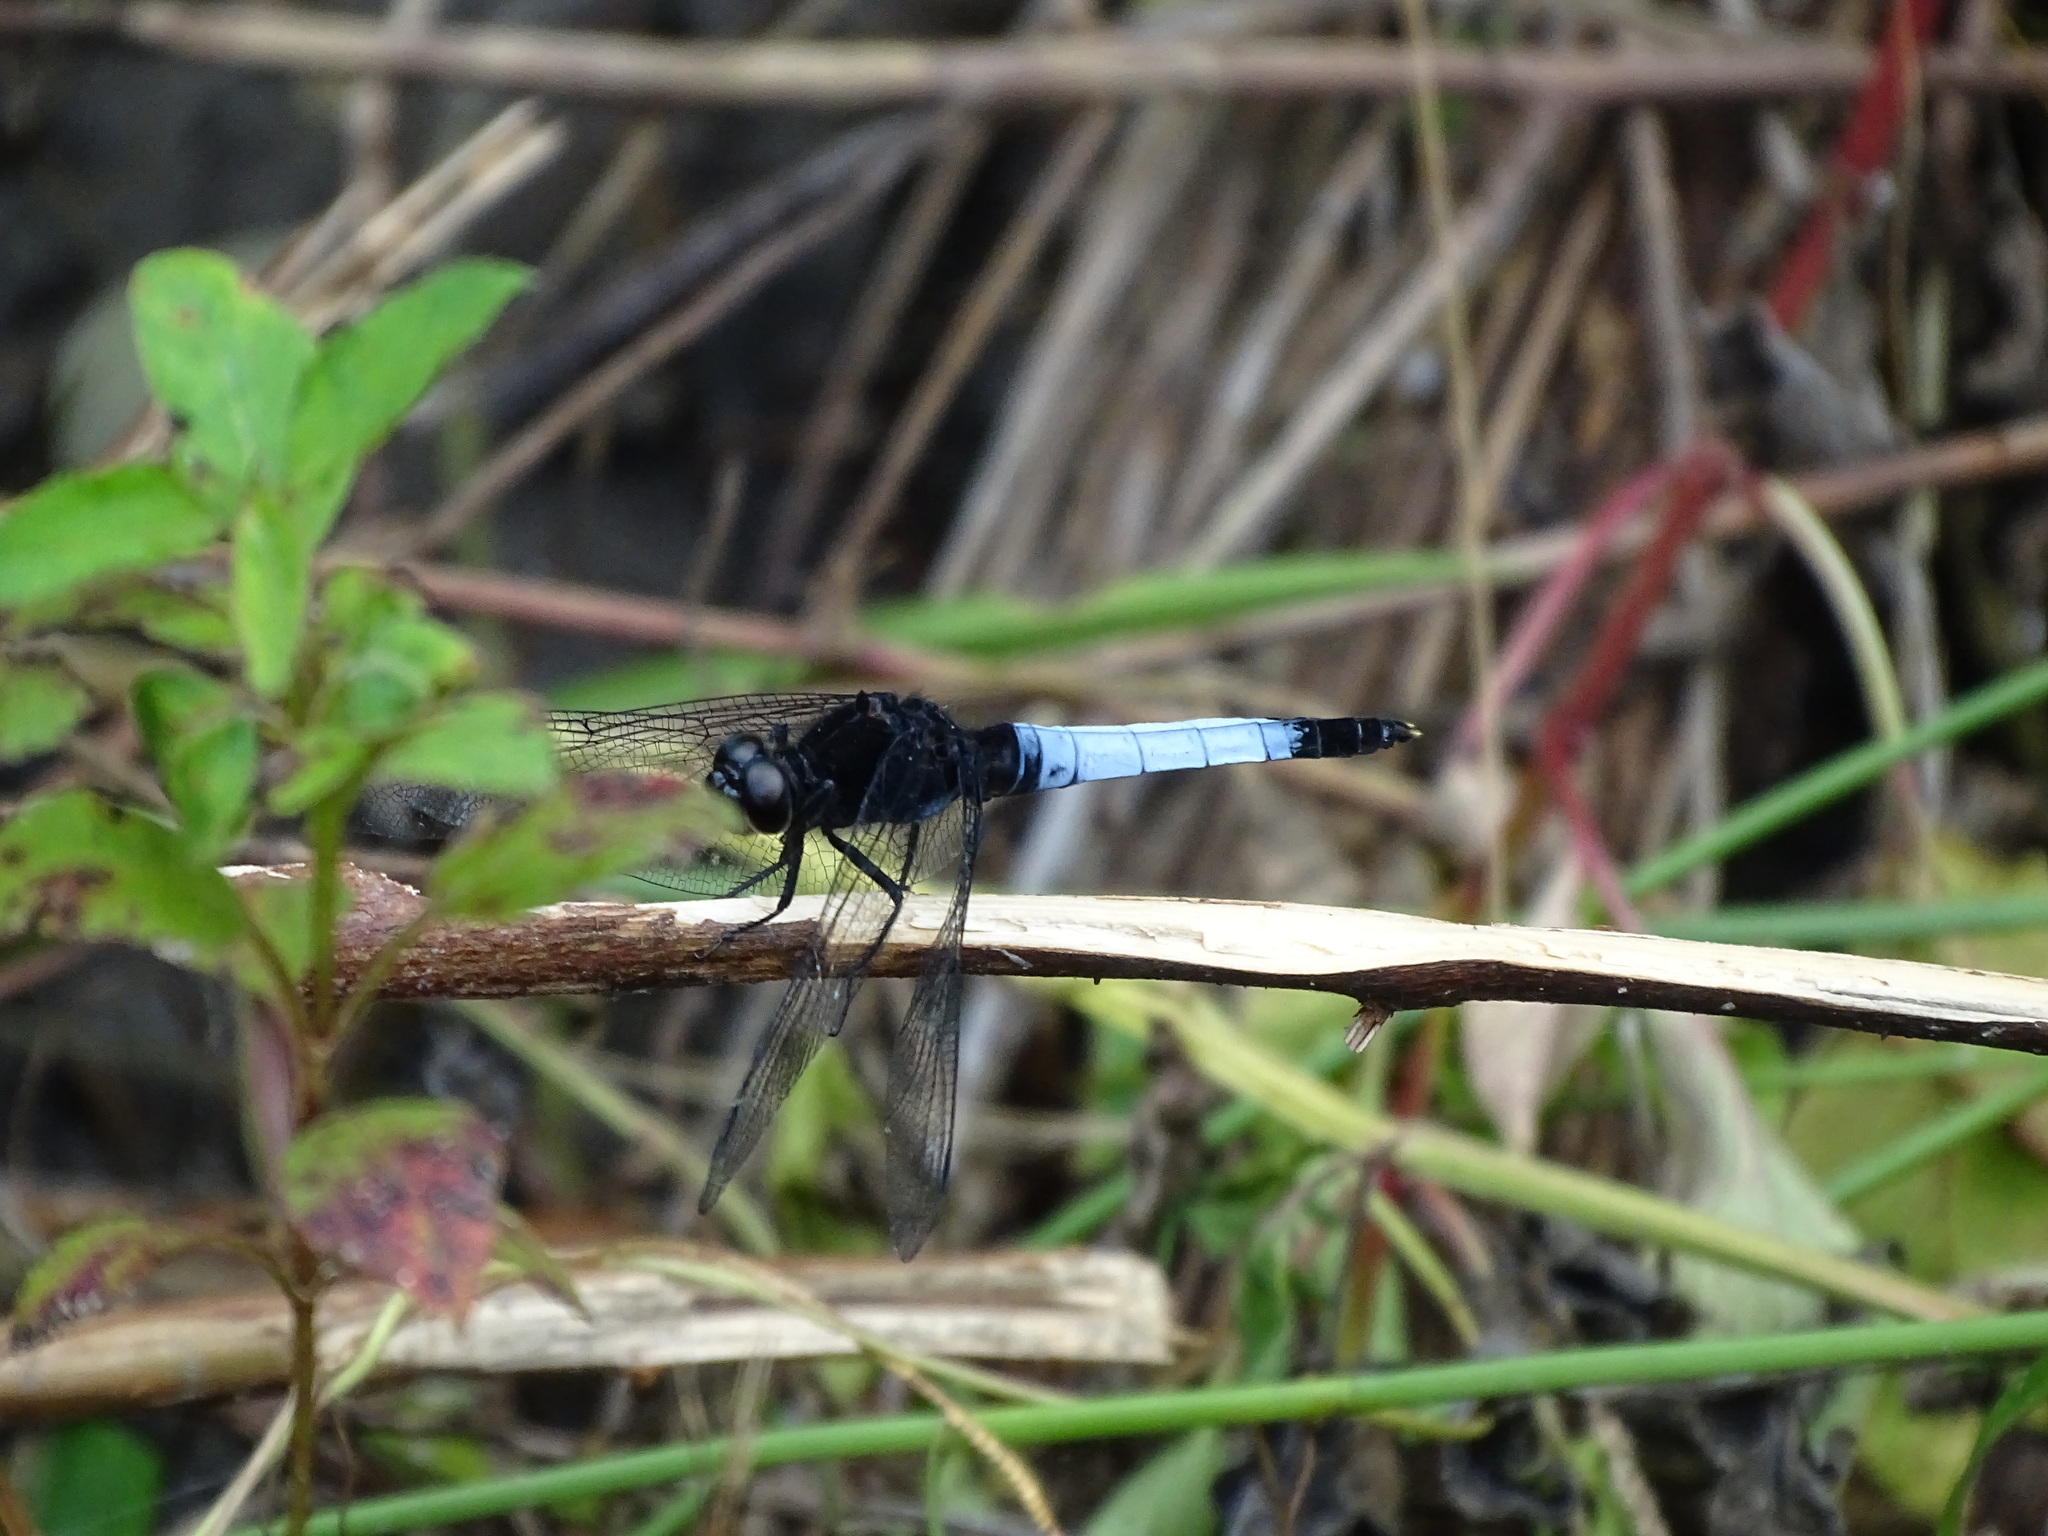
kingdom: Animalia
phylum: Arthropoda
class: Insecta
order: Odonata
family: Libellulidae
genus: Orthetrum
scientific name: Orthetrum triangulare
